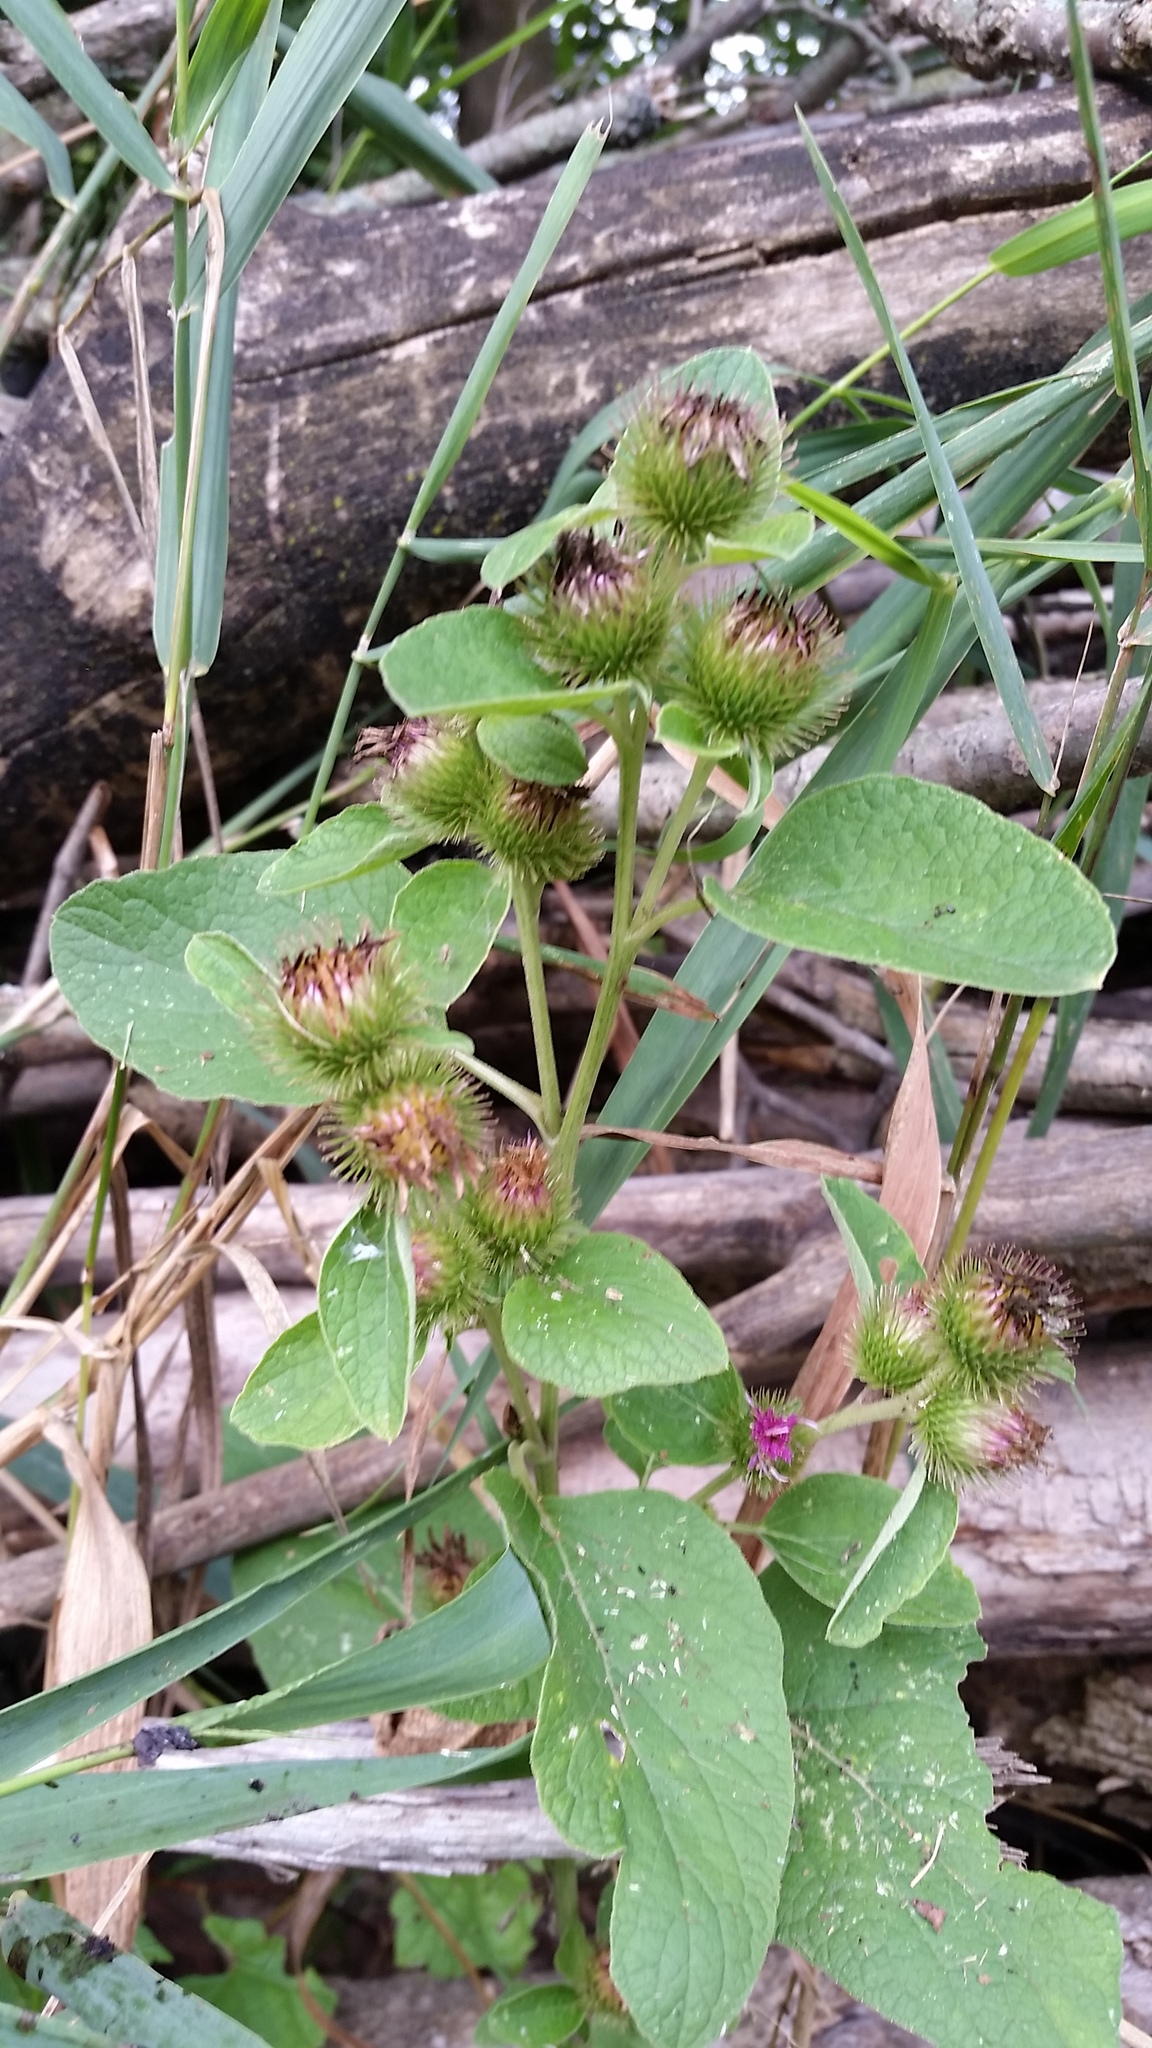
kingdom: Plantae
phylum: Tracheophyta
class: Magnoliopsida
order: Asterales
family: Asteraceae
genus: Arctium
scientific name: Arctium minus
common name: Lesser burdock
